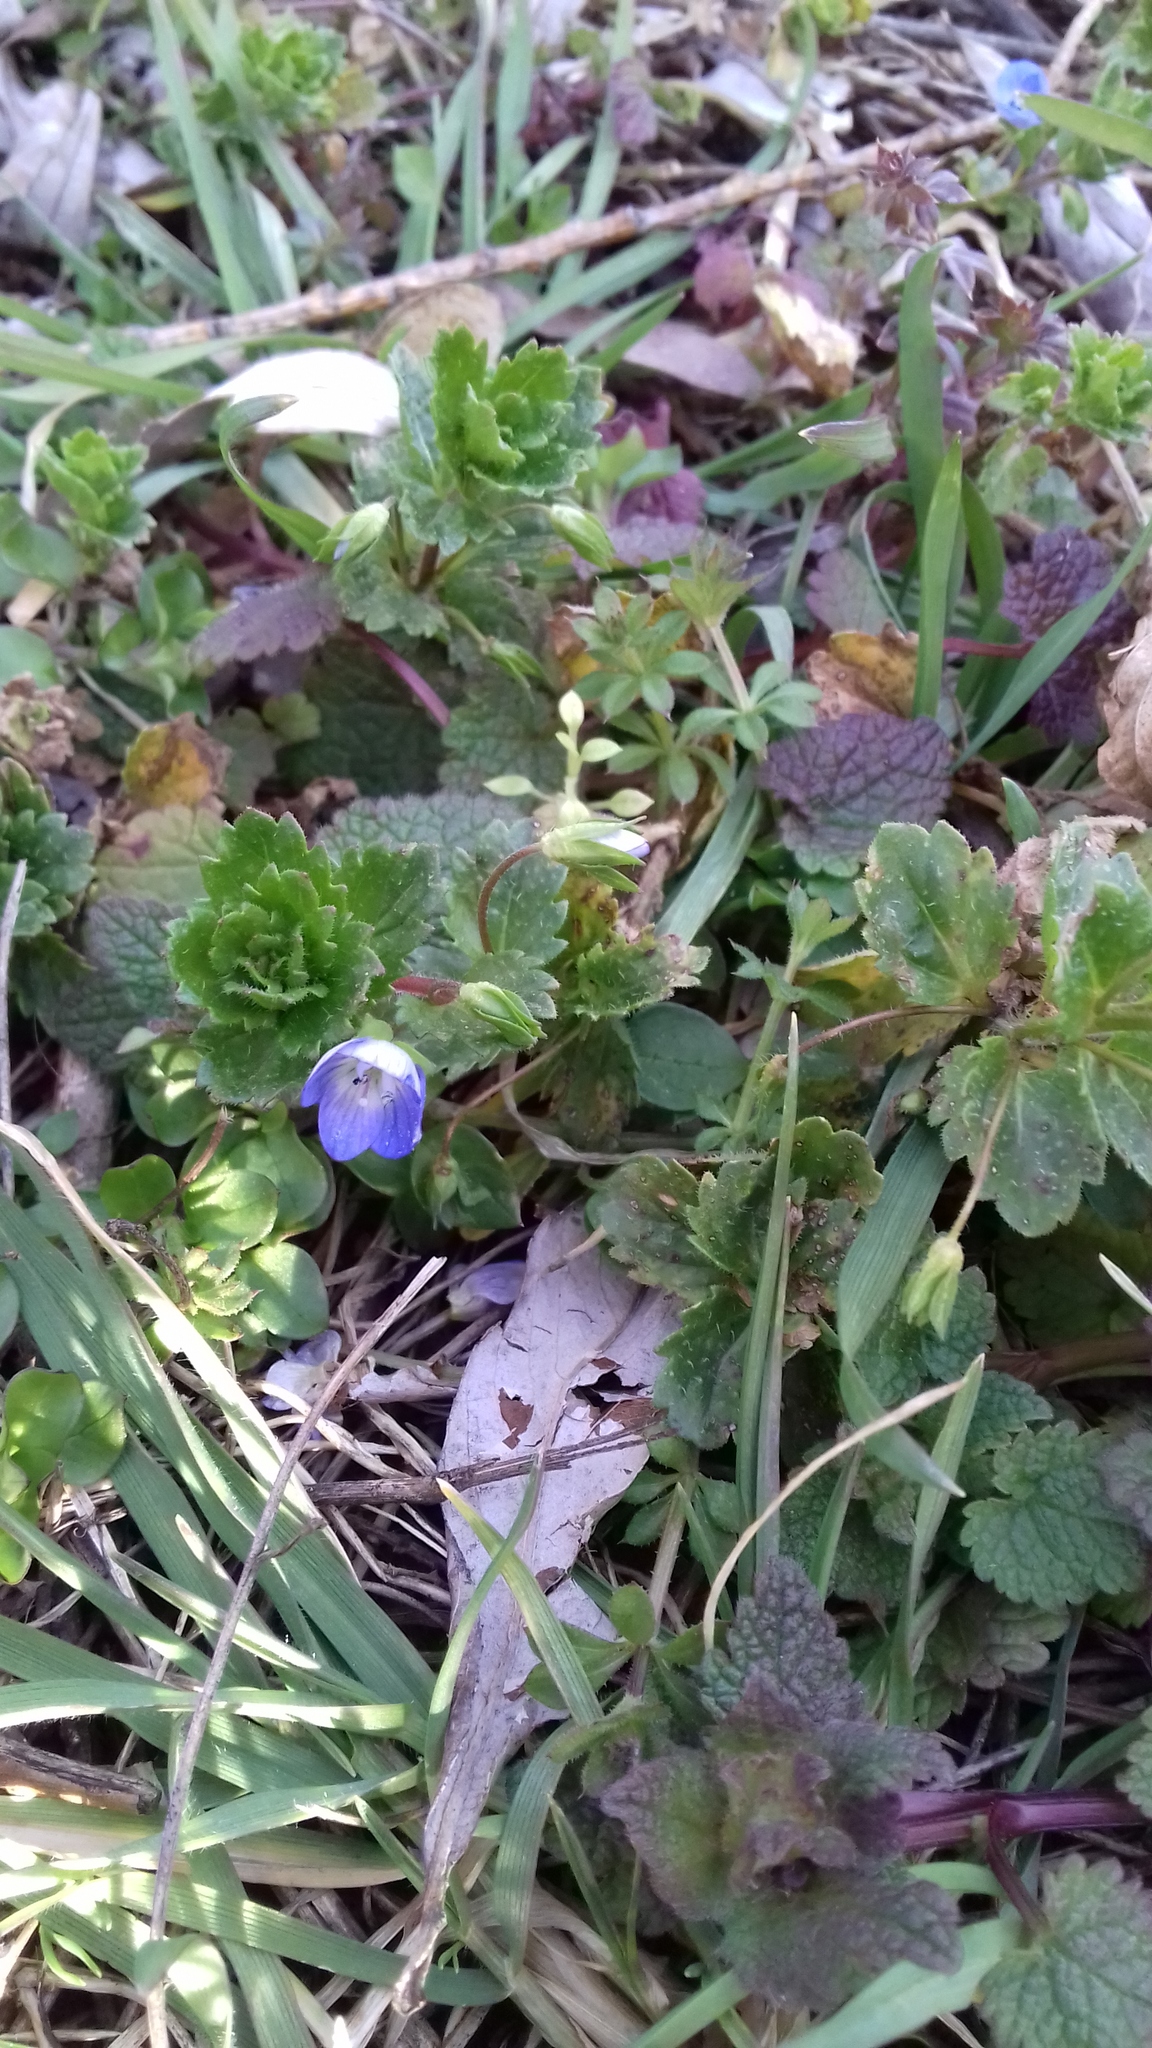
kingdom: Plantae
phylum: Tracheophyta
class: Magnoliopsida
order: Lamiales
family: Plantaginaceae
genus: Veronica
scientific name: Veronica persica
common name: Common field-speedwell
